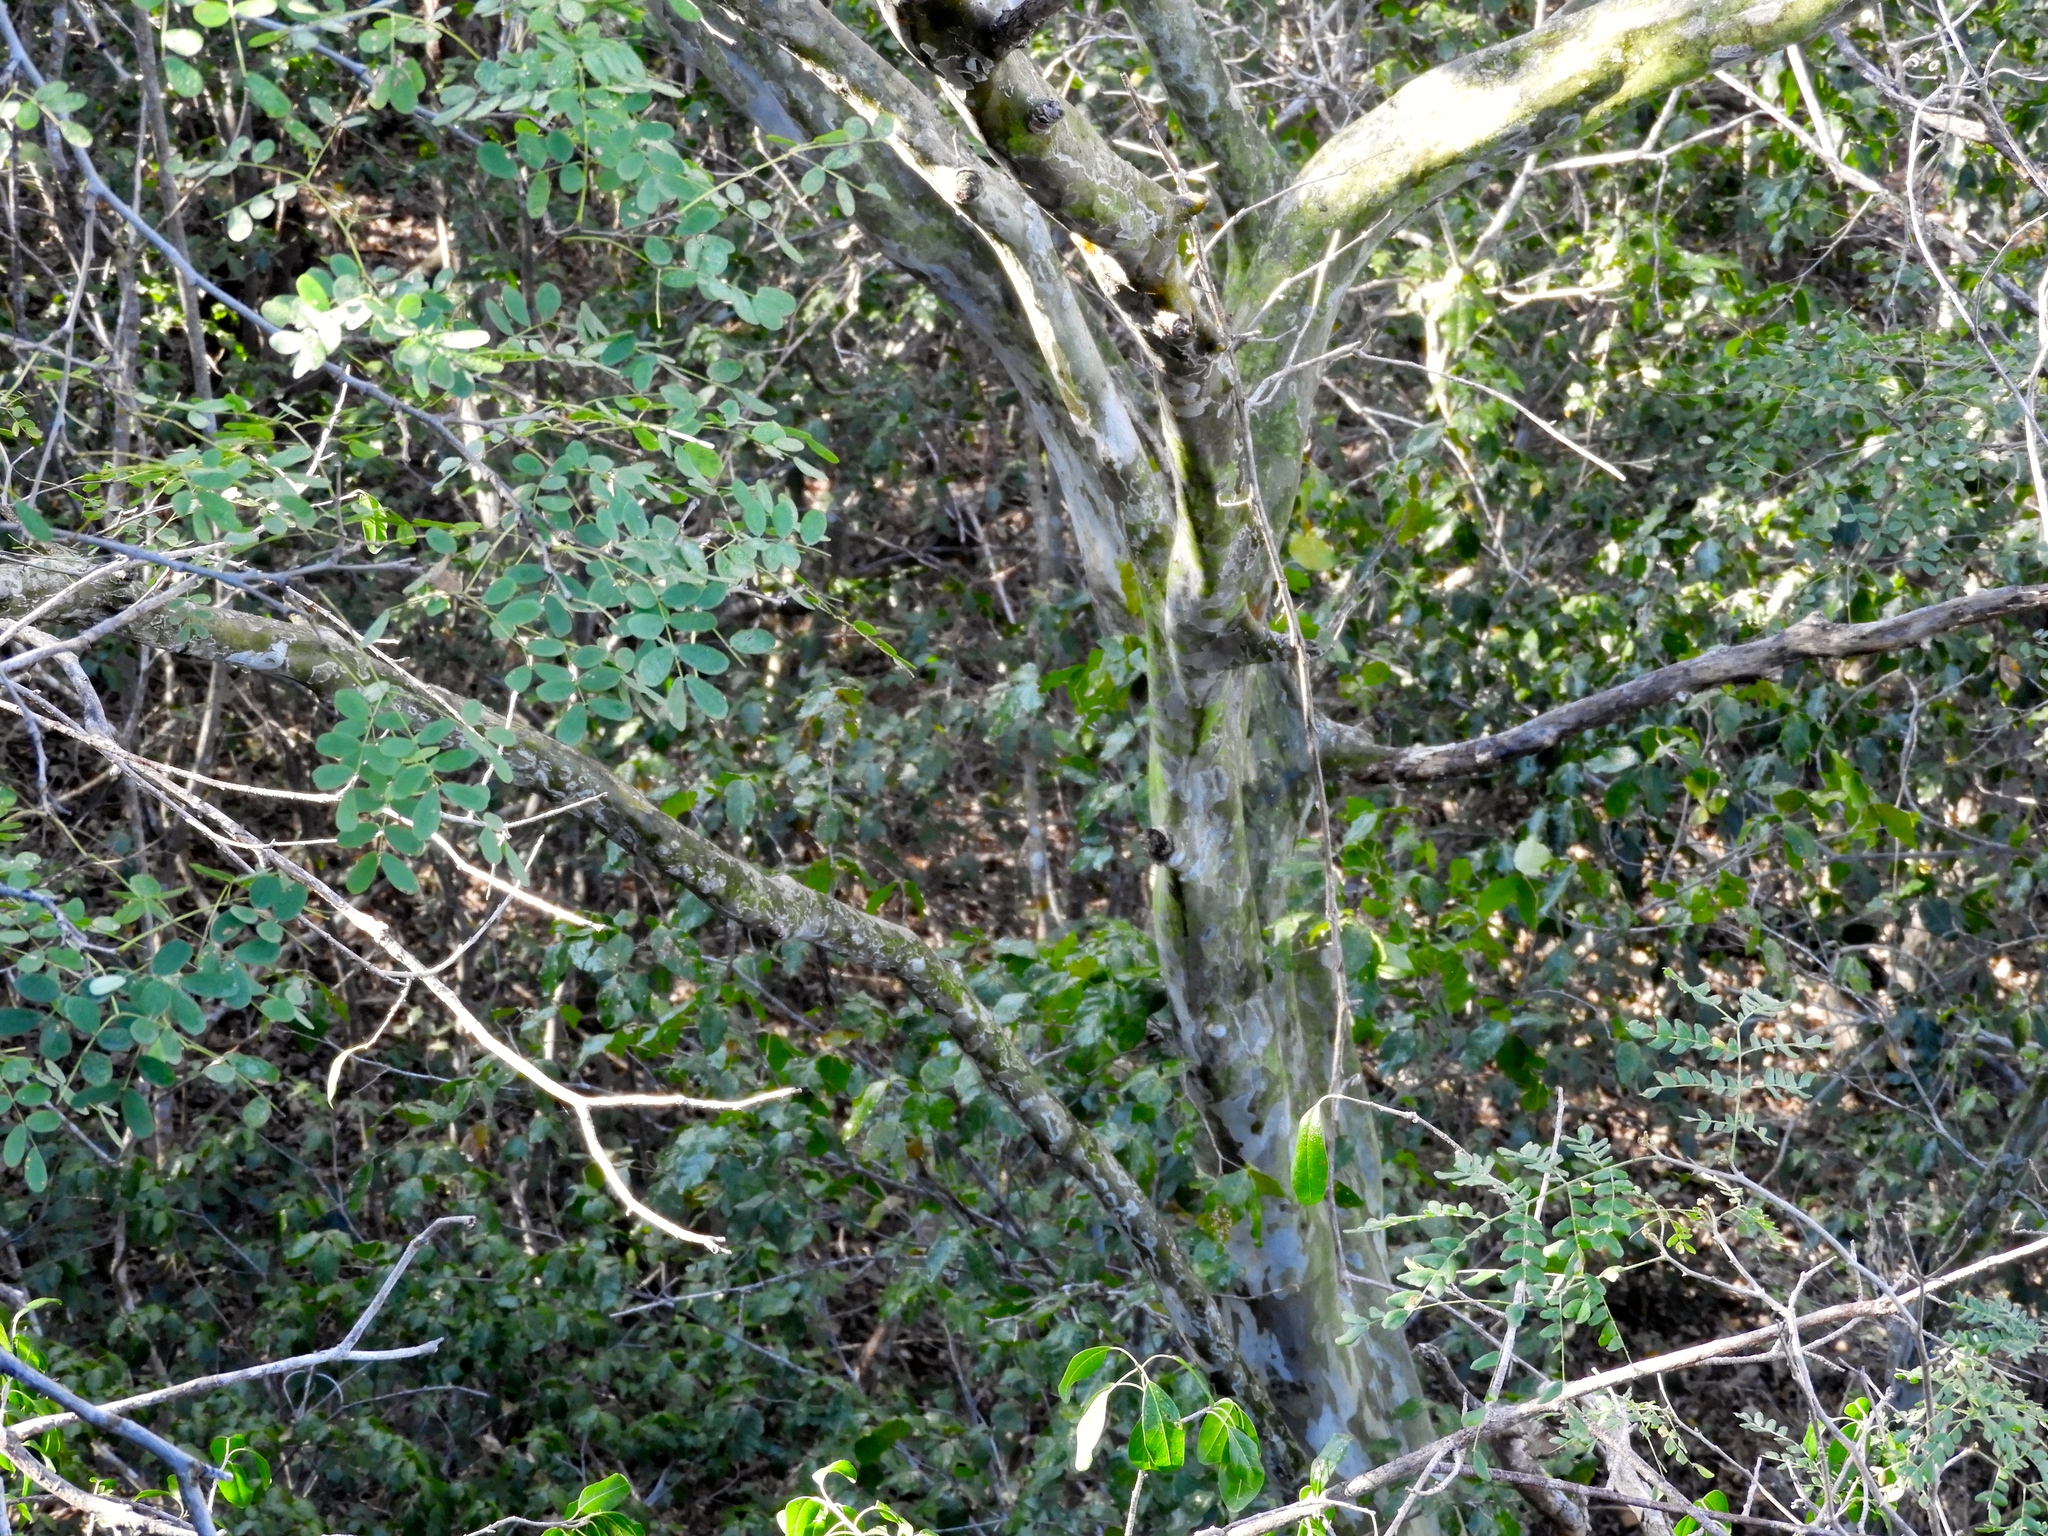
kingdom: Plantae
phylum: Tracheophyta
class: Magnoliopsida
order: Fabales
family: Fabaceae
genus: Chloroleucon
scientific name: Chloroleucon mangense
